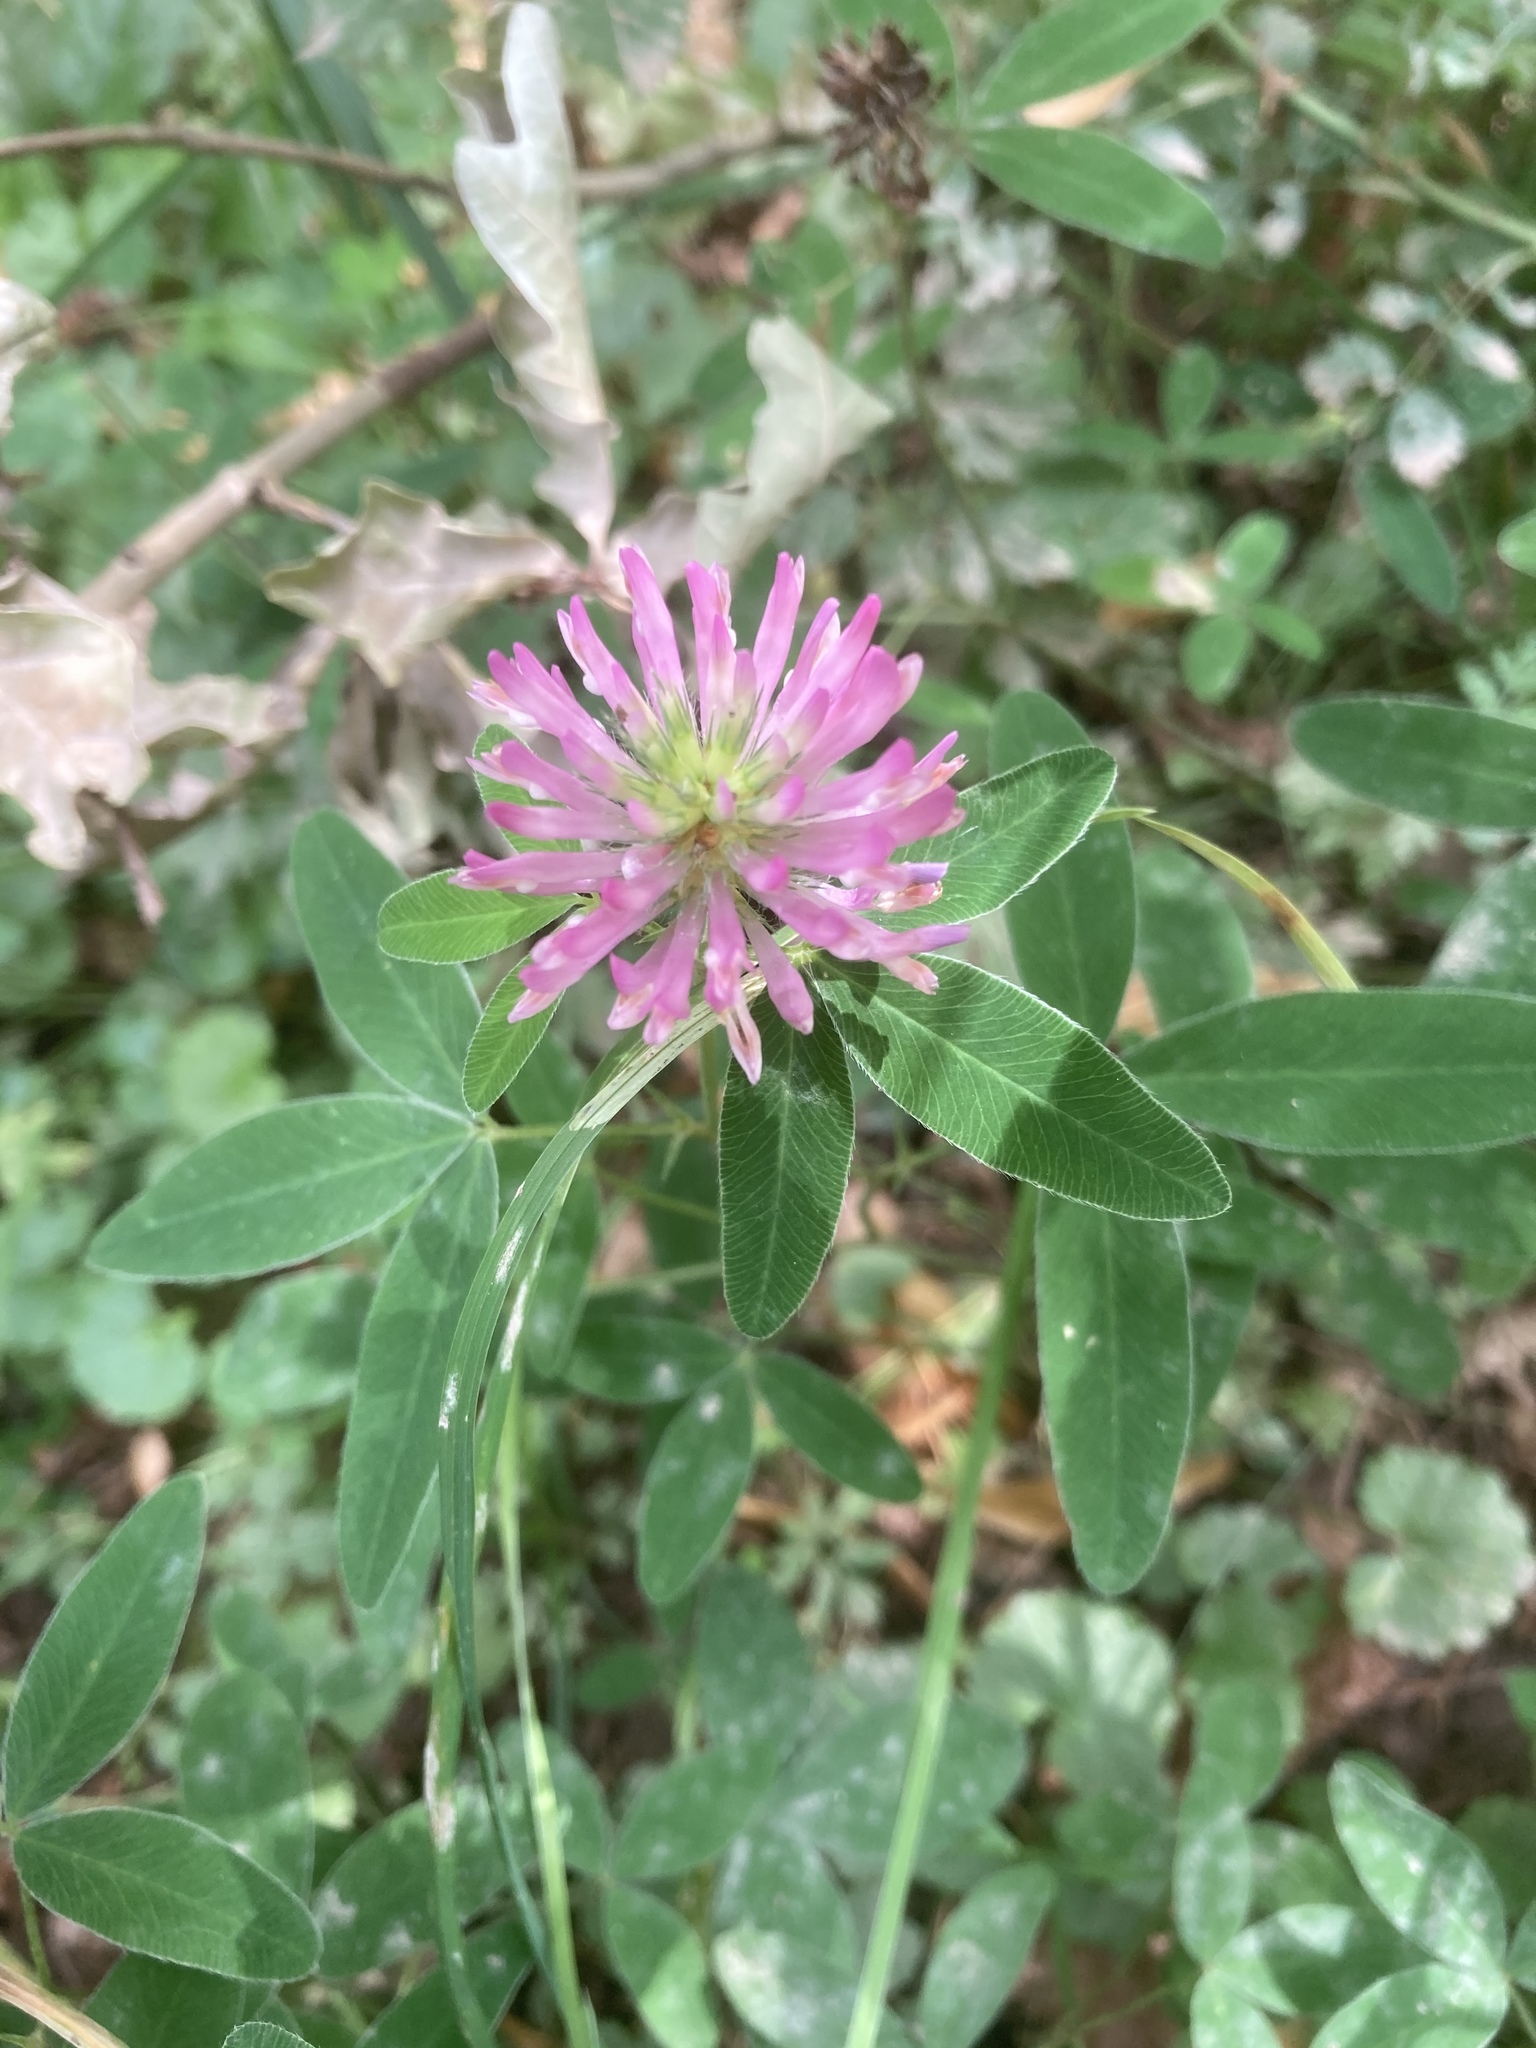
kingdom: Plantae
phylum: Tracheophyta
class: Magnoliopsida
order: Fabales
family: Fabaceae
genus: Trifolium
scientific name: Trifolium medium
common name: Zigzag clover
